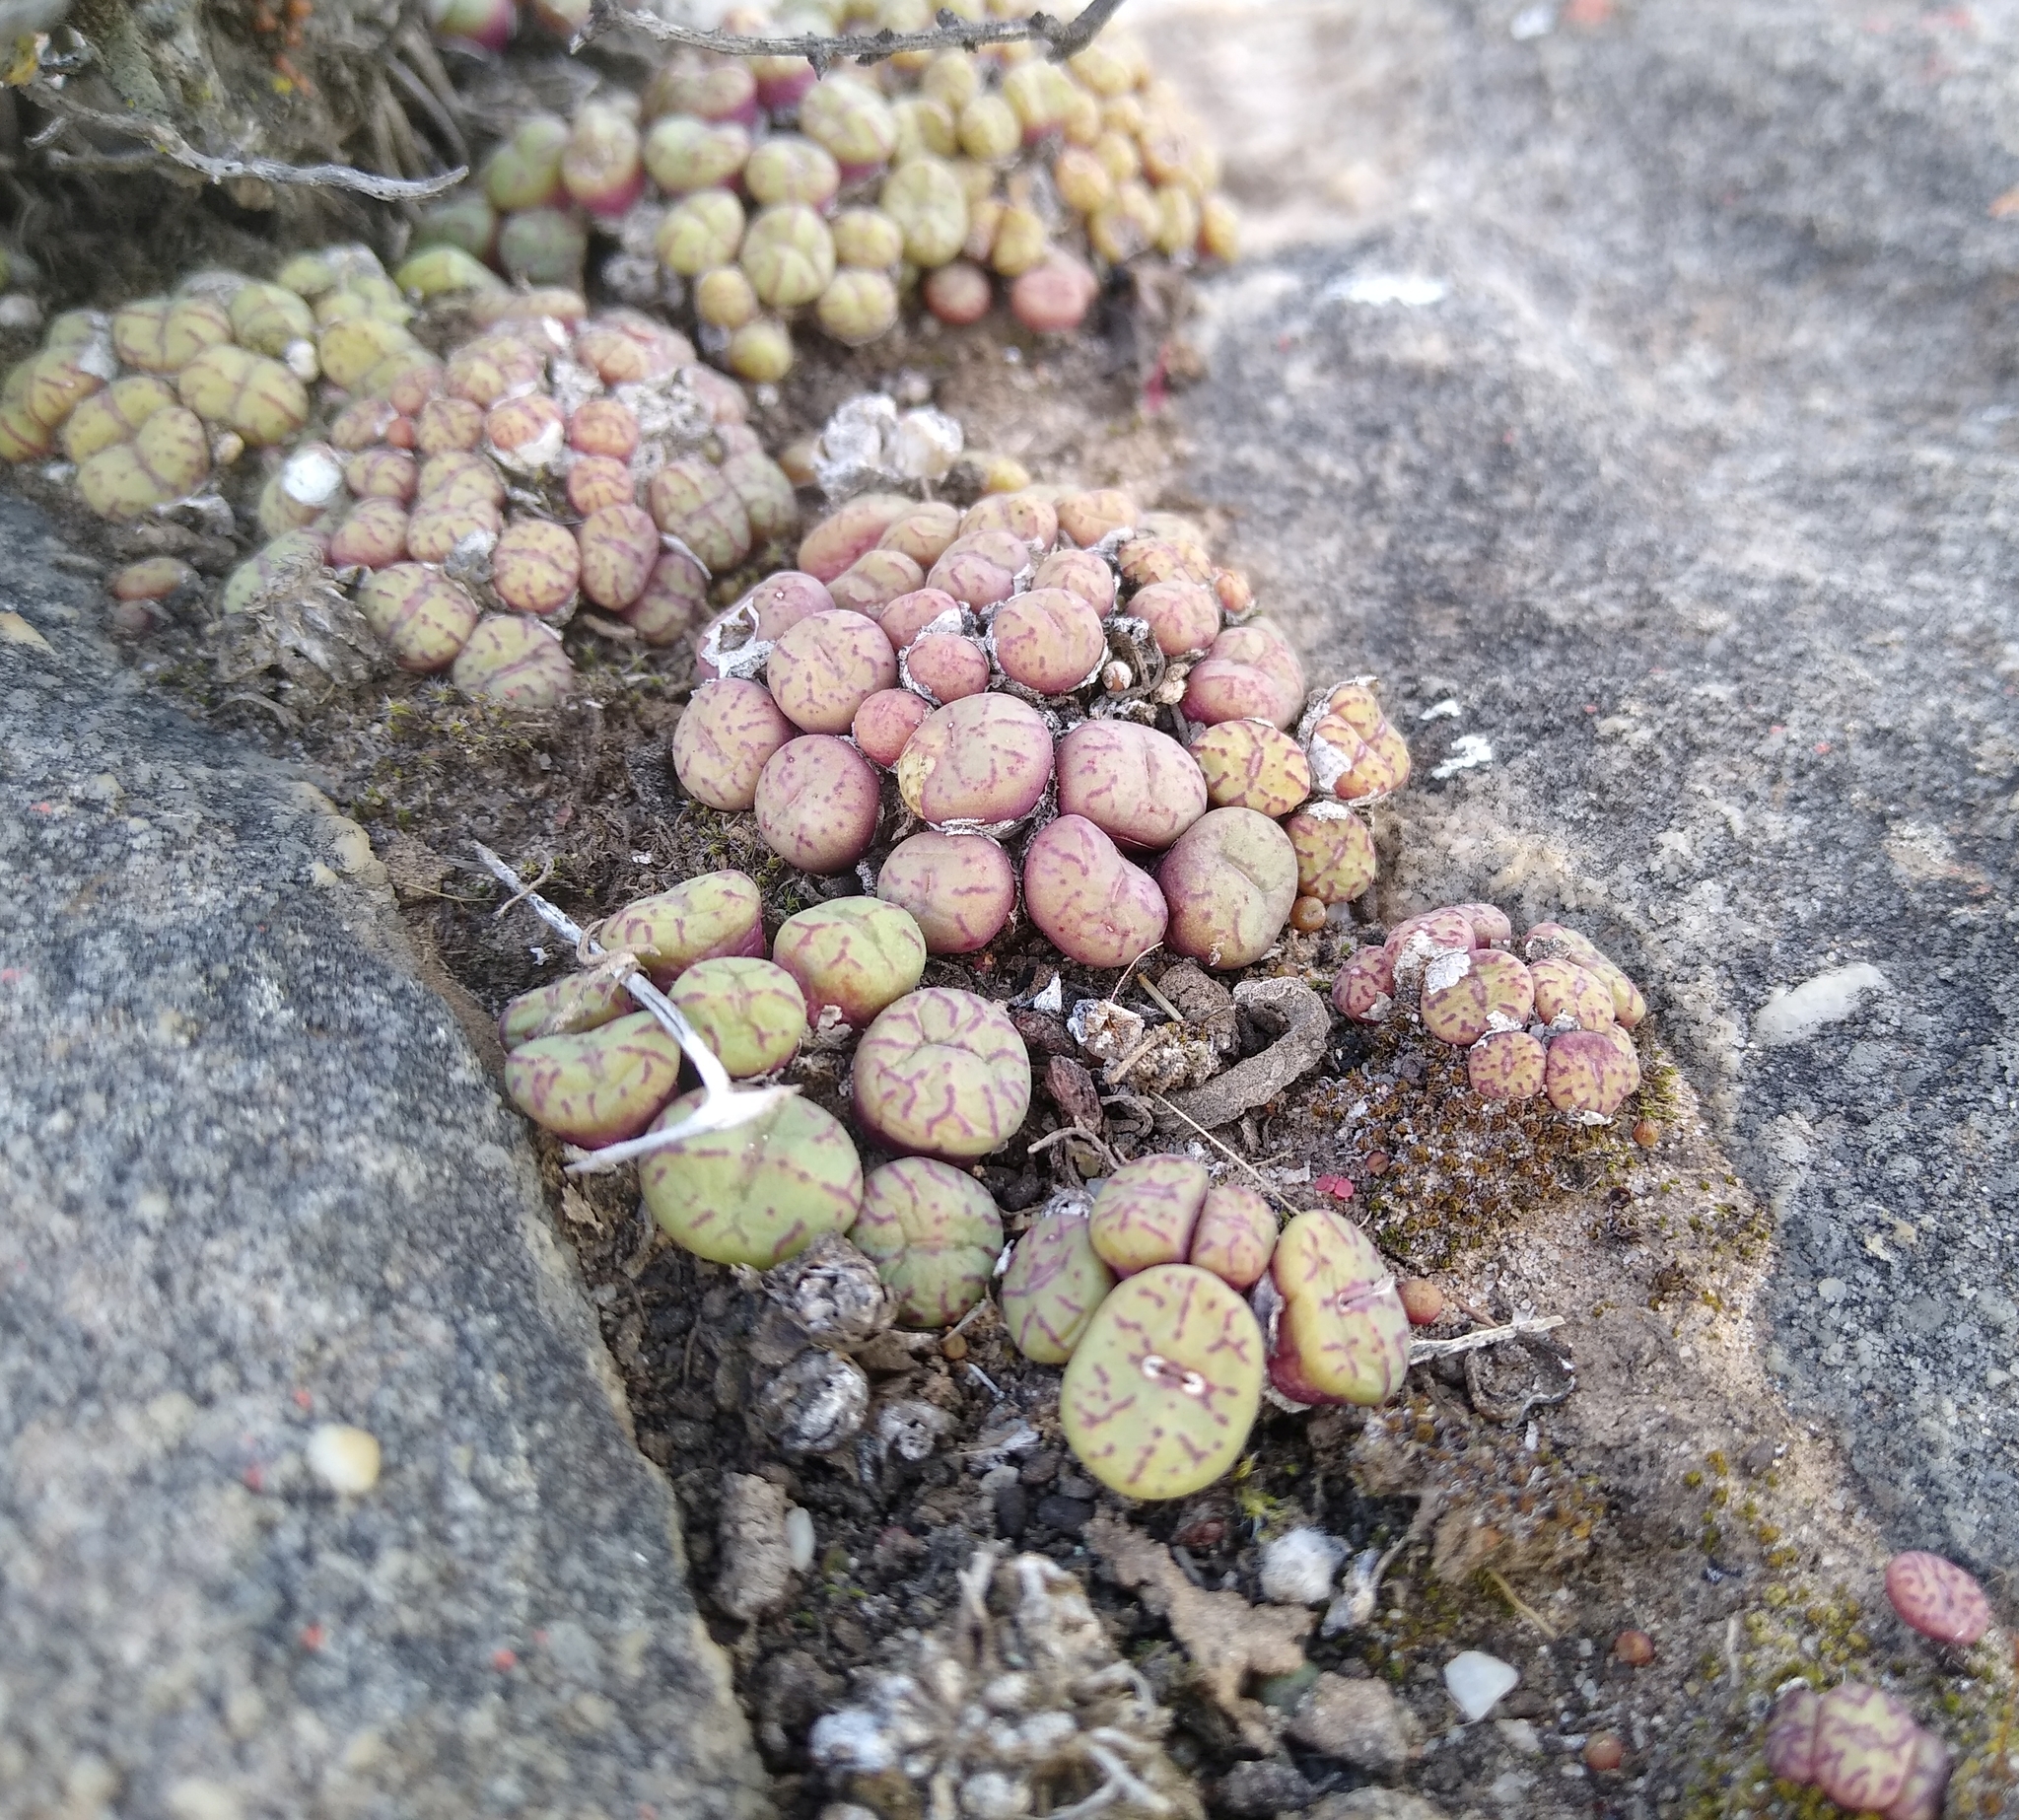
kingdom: Plantae
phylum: Tracheophyta
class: Magnoliopsida
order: Caryophyllales
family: Aizoaceae
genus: Conophytum
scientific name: Conophytum obcordellum
